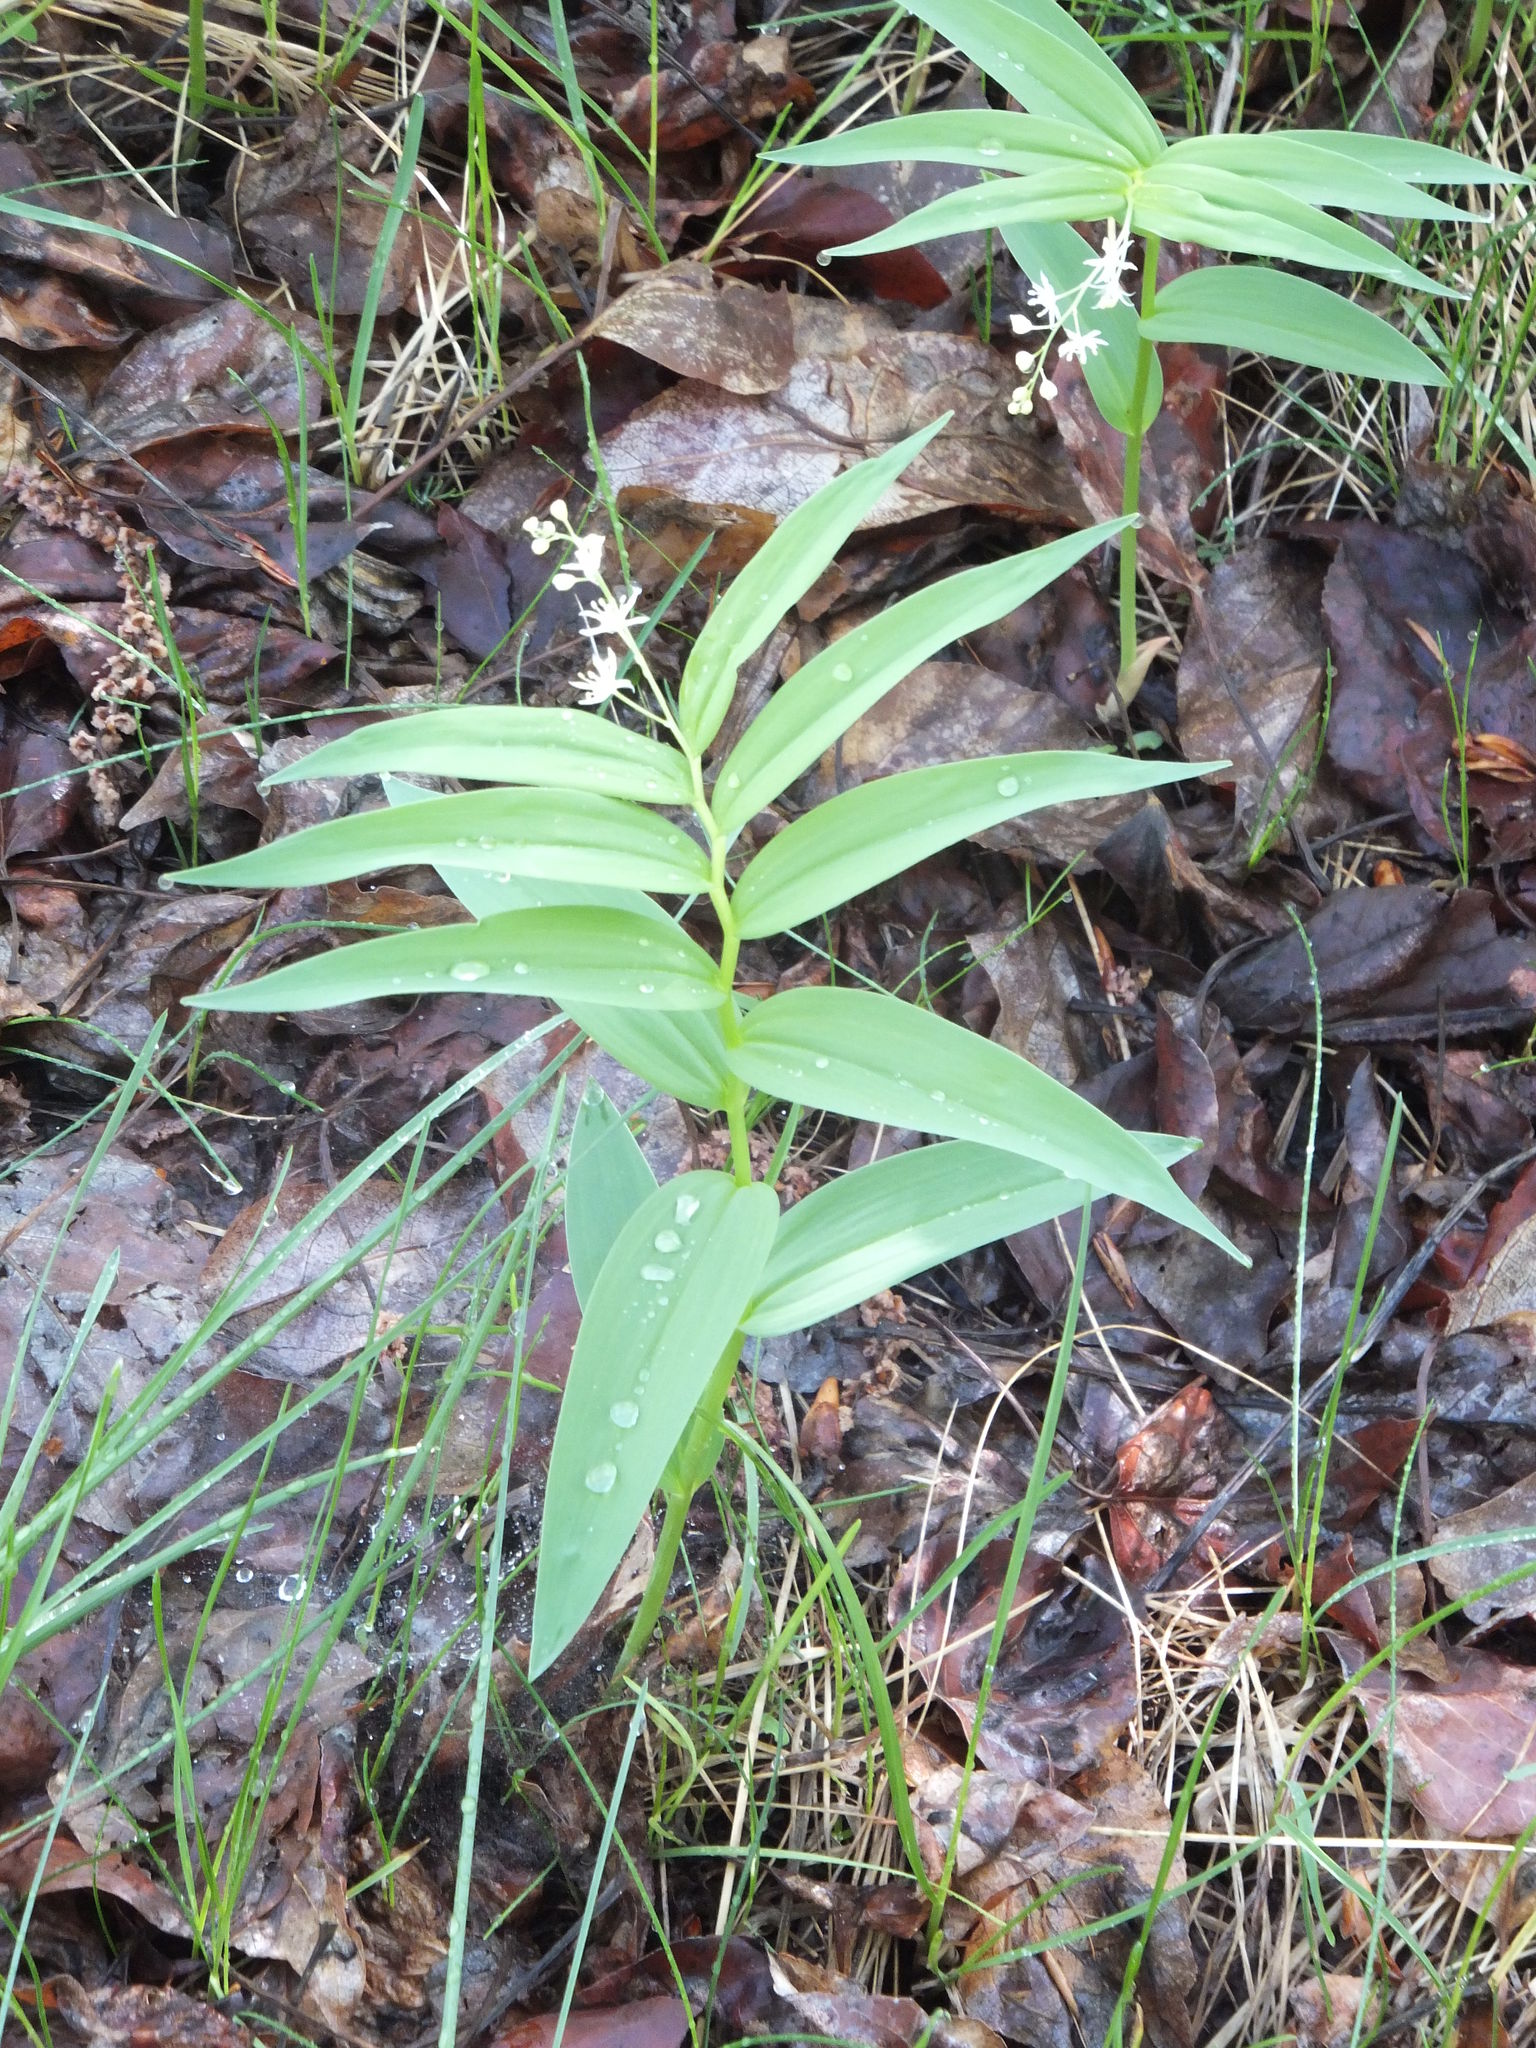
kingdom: Plantae
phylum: Tracheophyta
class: Liliopsida
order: Asparagales
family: Asparagaceae
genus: Maianthemum
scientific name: Maianthemum stellatum
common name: Little false solomon's seal
